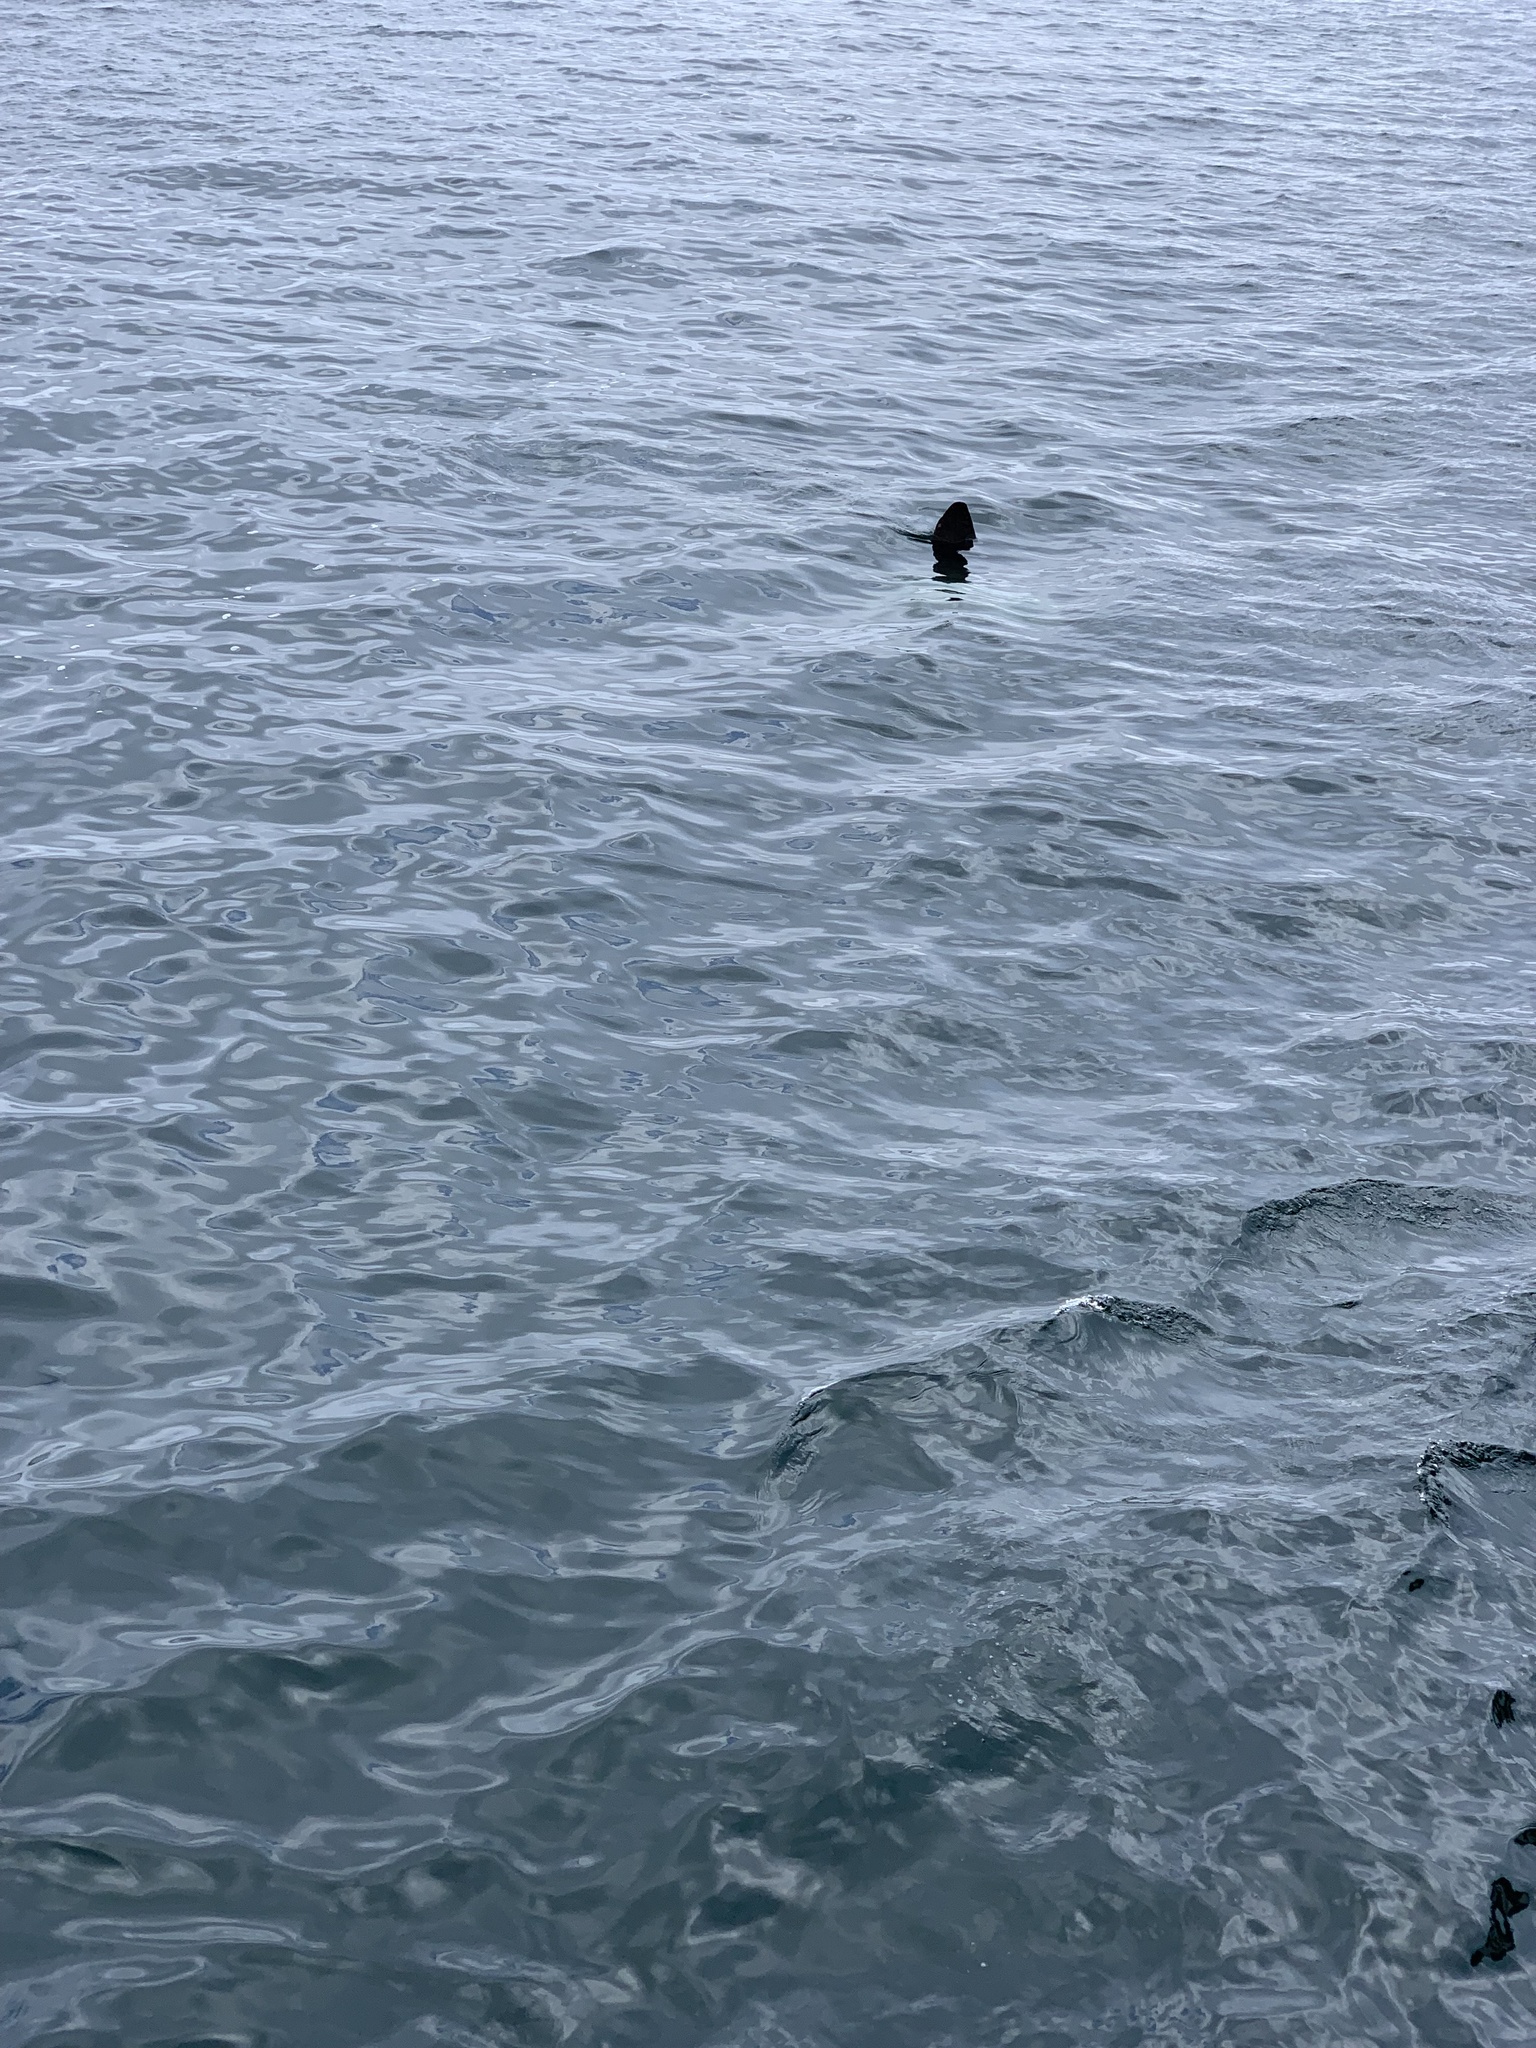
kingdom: Animalia
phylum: Chordata
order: Tetraodontiformes
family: Molidae
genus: Mola
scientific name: Mola mola
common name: Ocean sunfish
